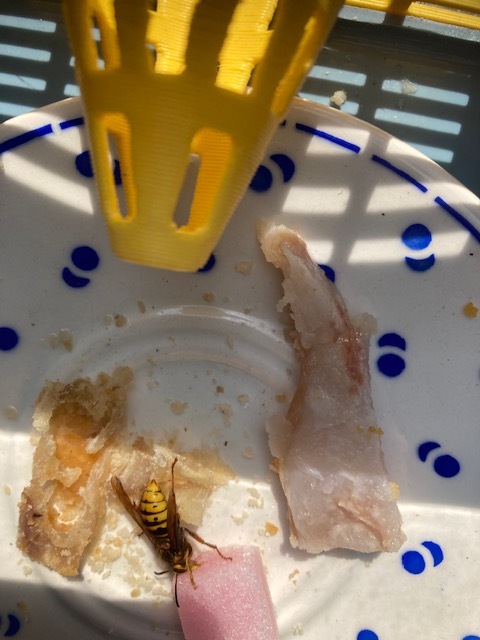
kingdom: Animalia
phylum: Arthropoda
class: Insecta
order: Hymenoptera
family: Vespidae
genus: Vespa
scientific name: Vespa crabro
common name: Hornet
